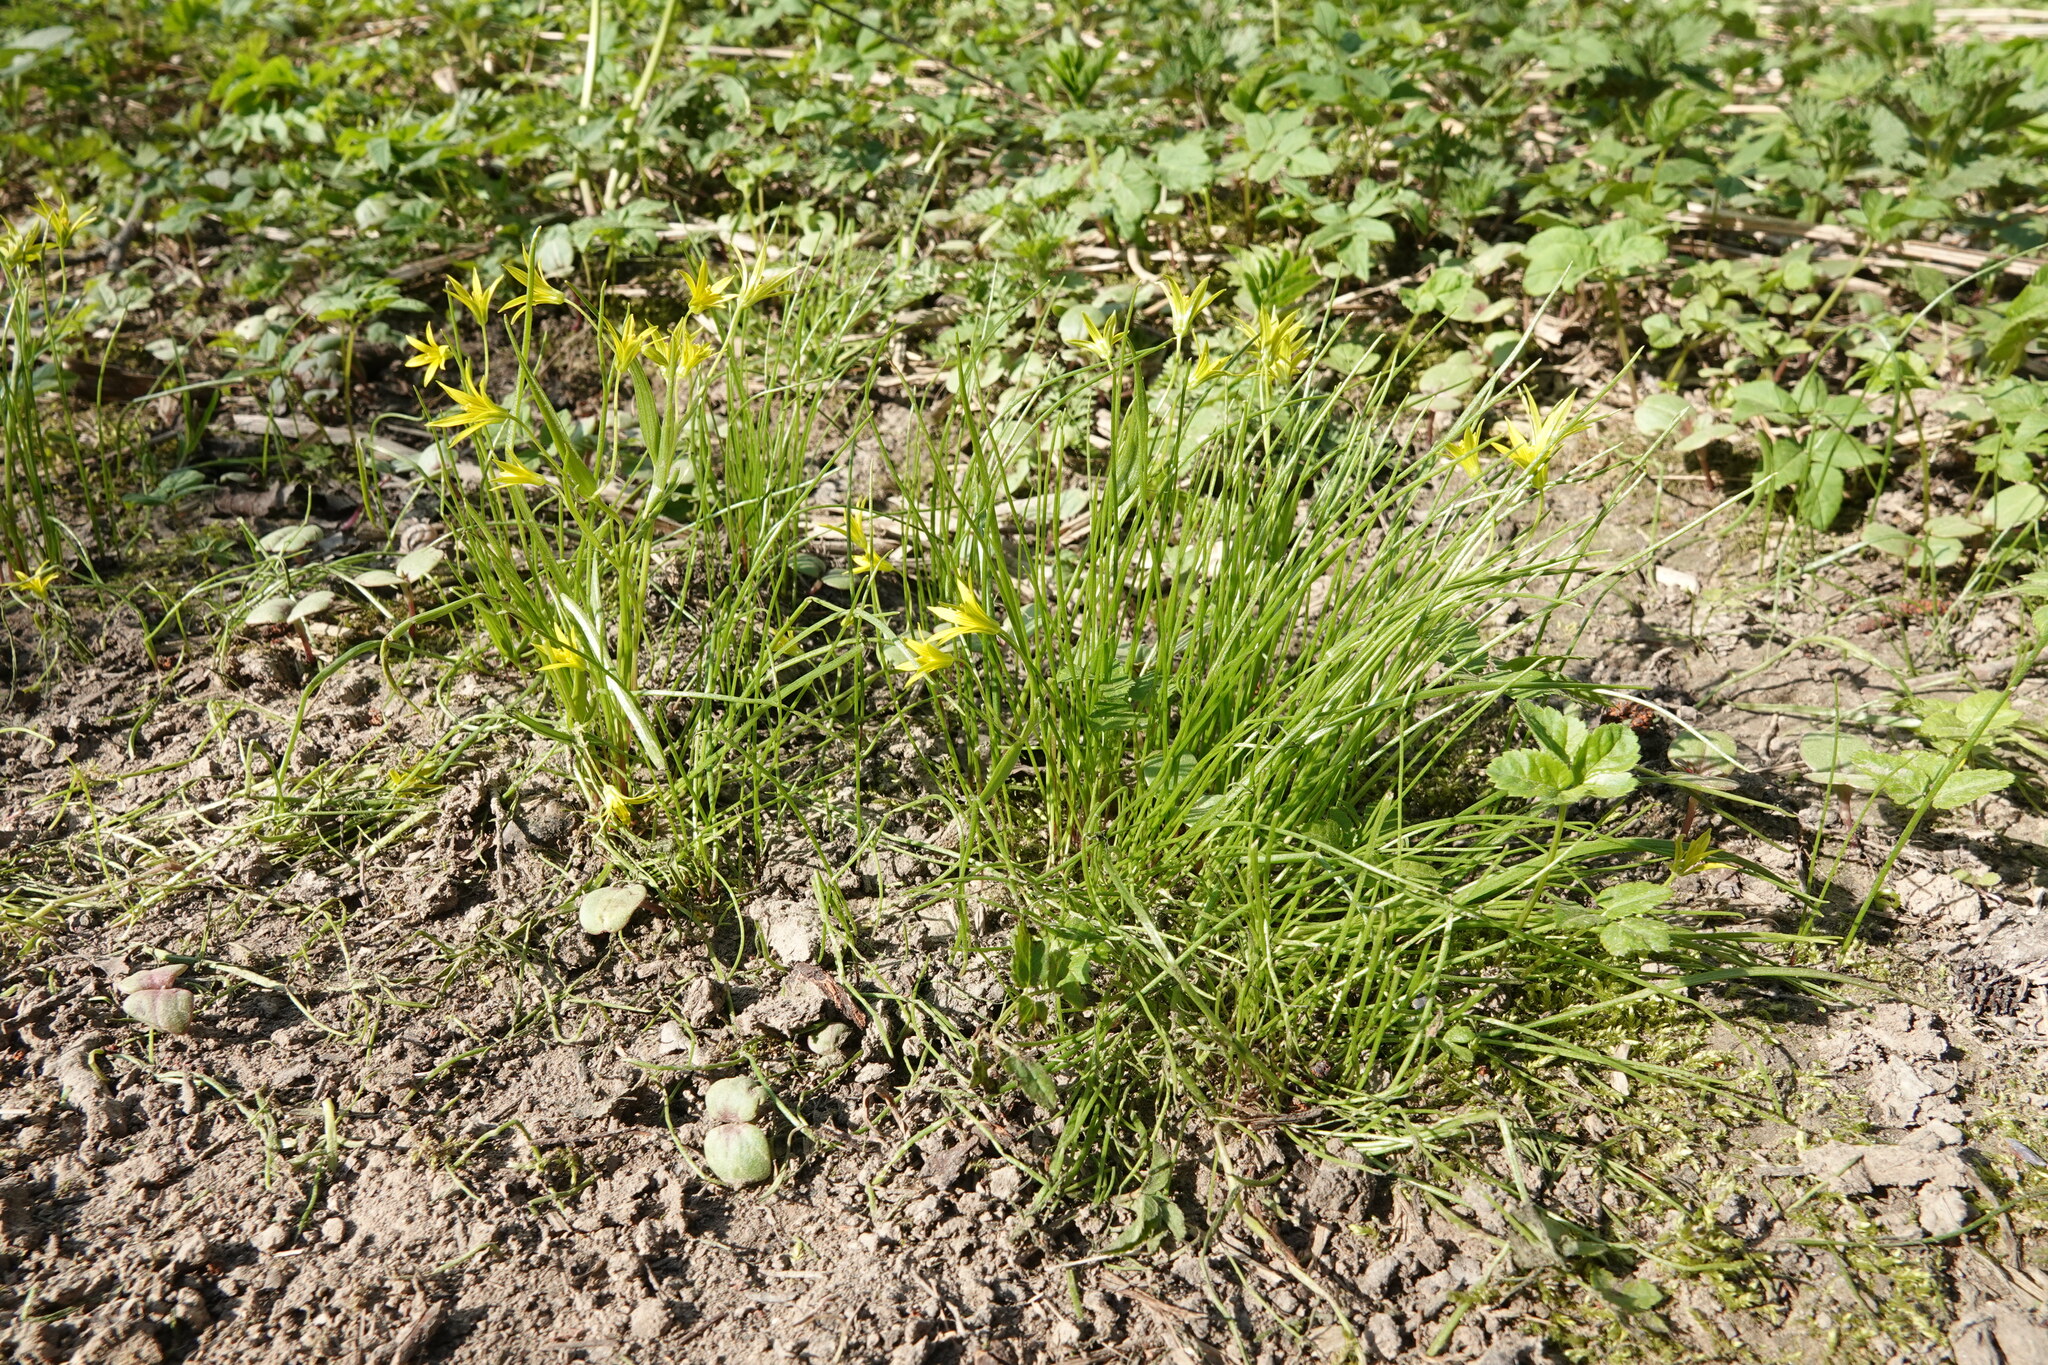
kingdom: Plantae
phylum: Tracheophyta
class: Liliopsida
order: Liliales
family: Liliaceae
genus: Gagea
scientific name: Gagea minima
